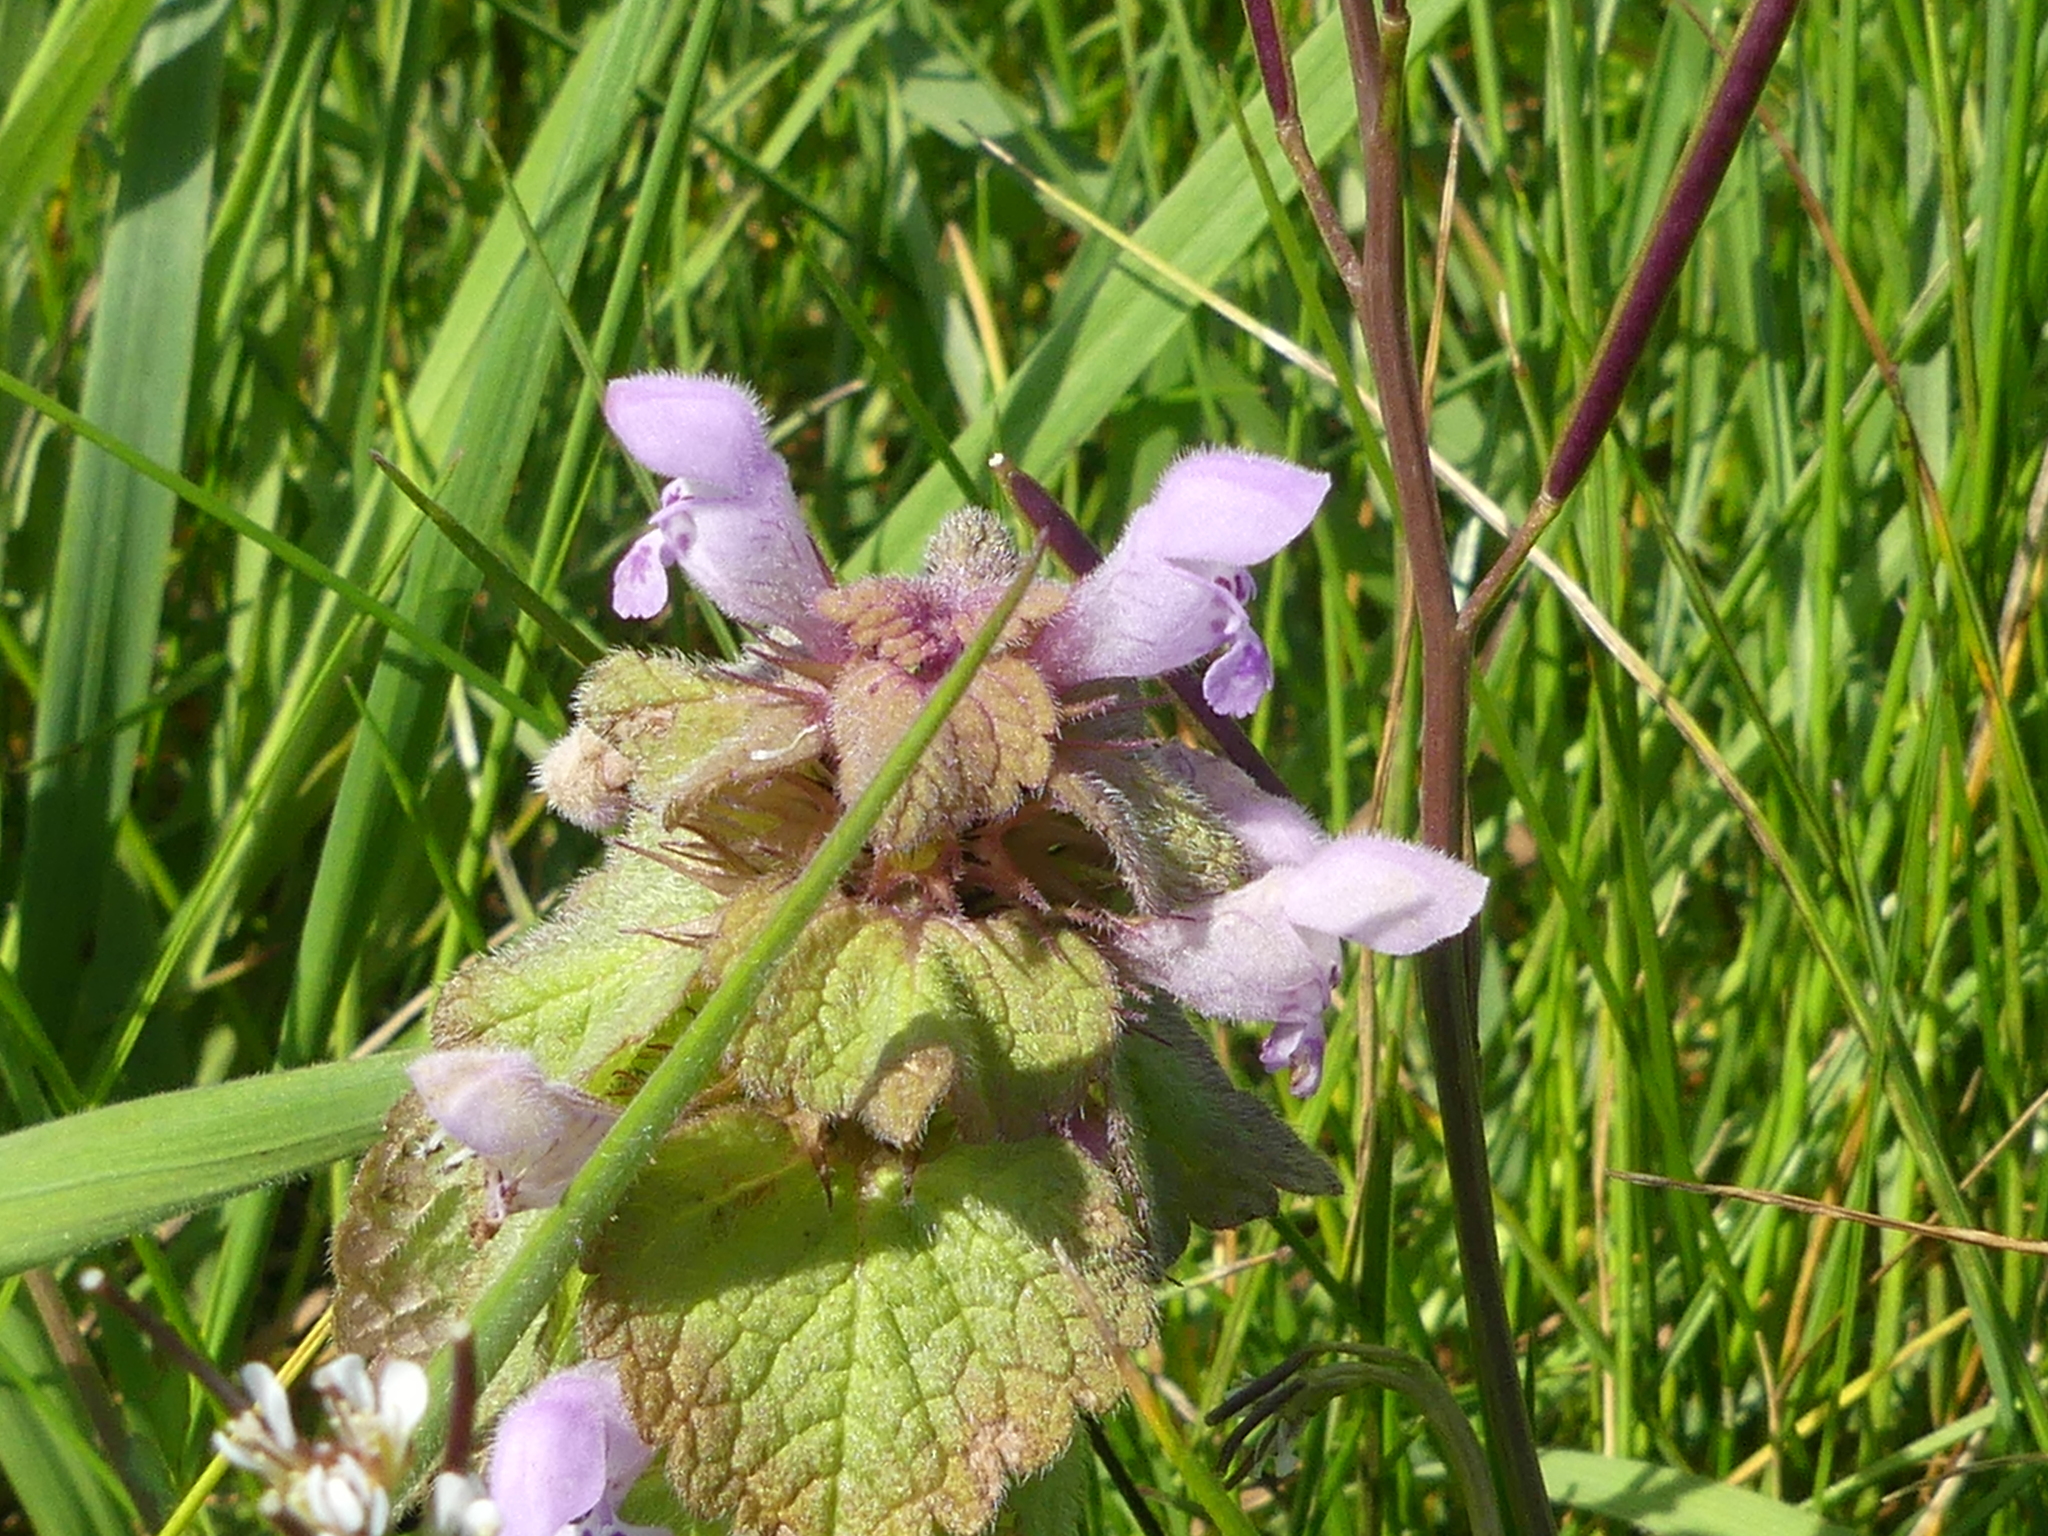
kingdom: Plantae
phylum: Tracheophyta
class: Magnoliopsida
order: Lamiales
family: Lamiaceae
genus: Lamium
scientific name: Lamium purpureum
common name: Red dead-nettle
